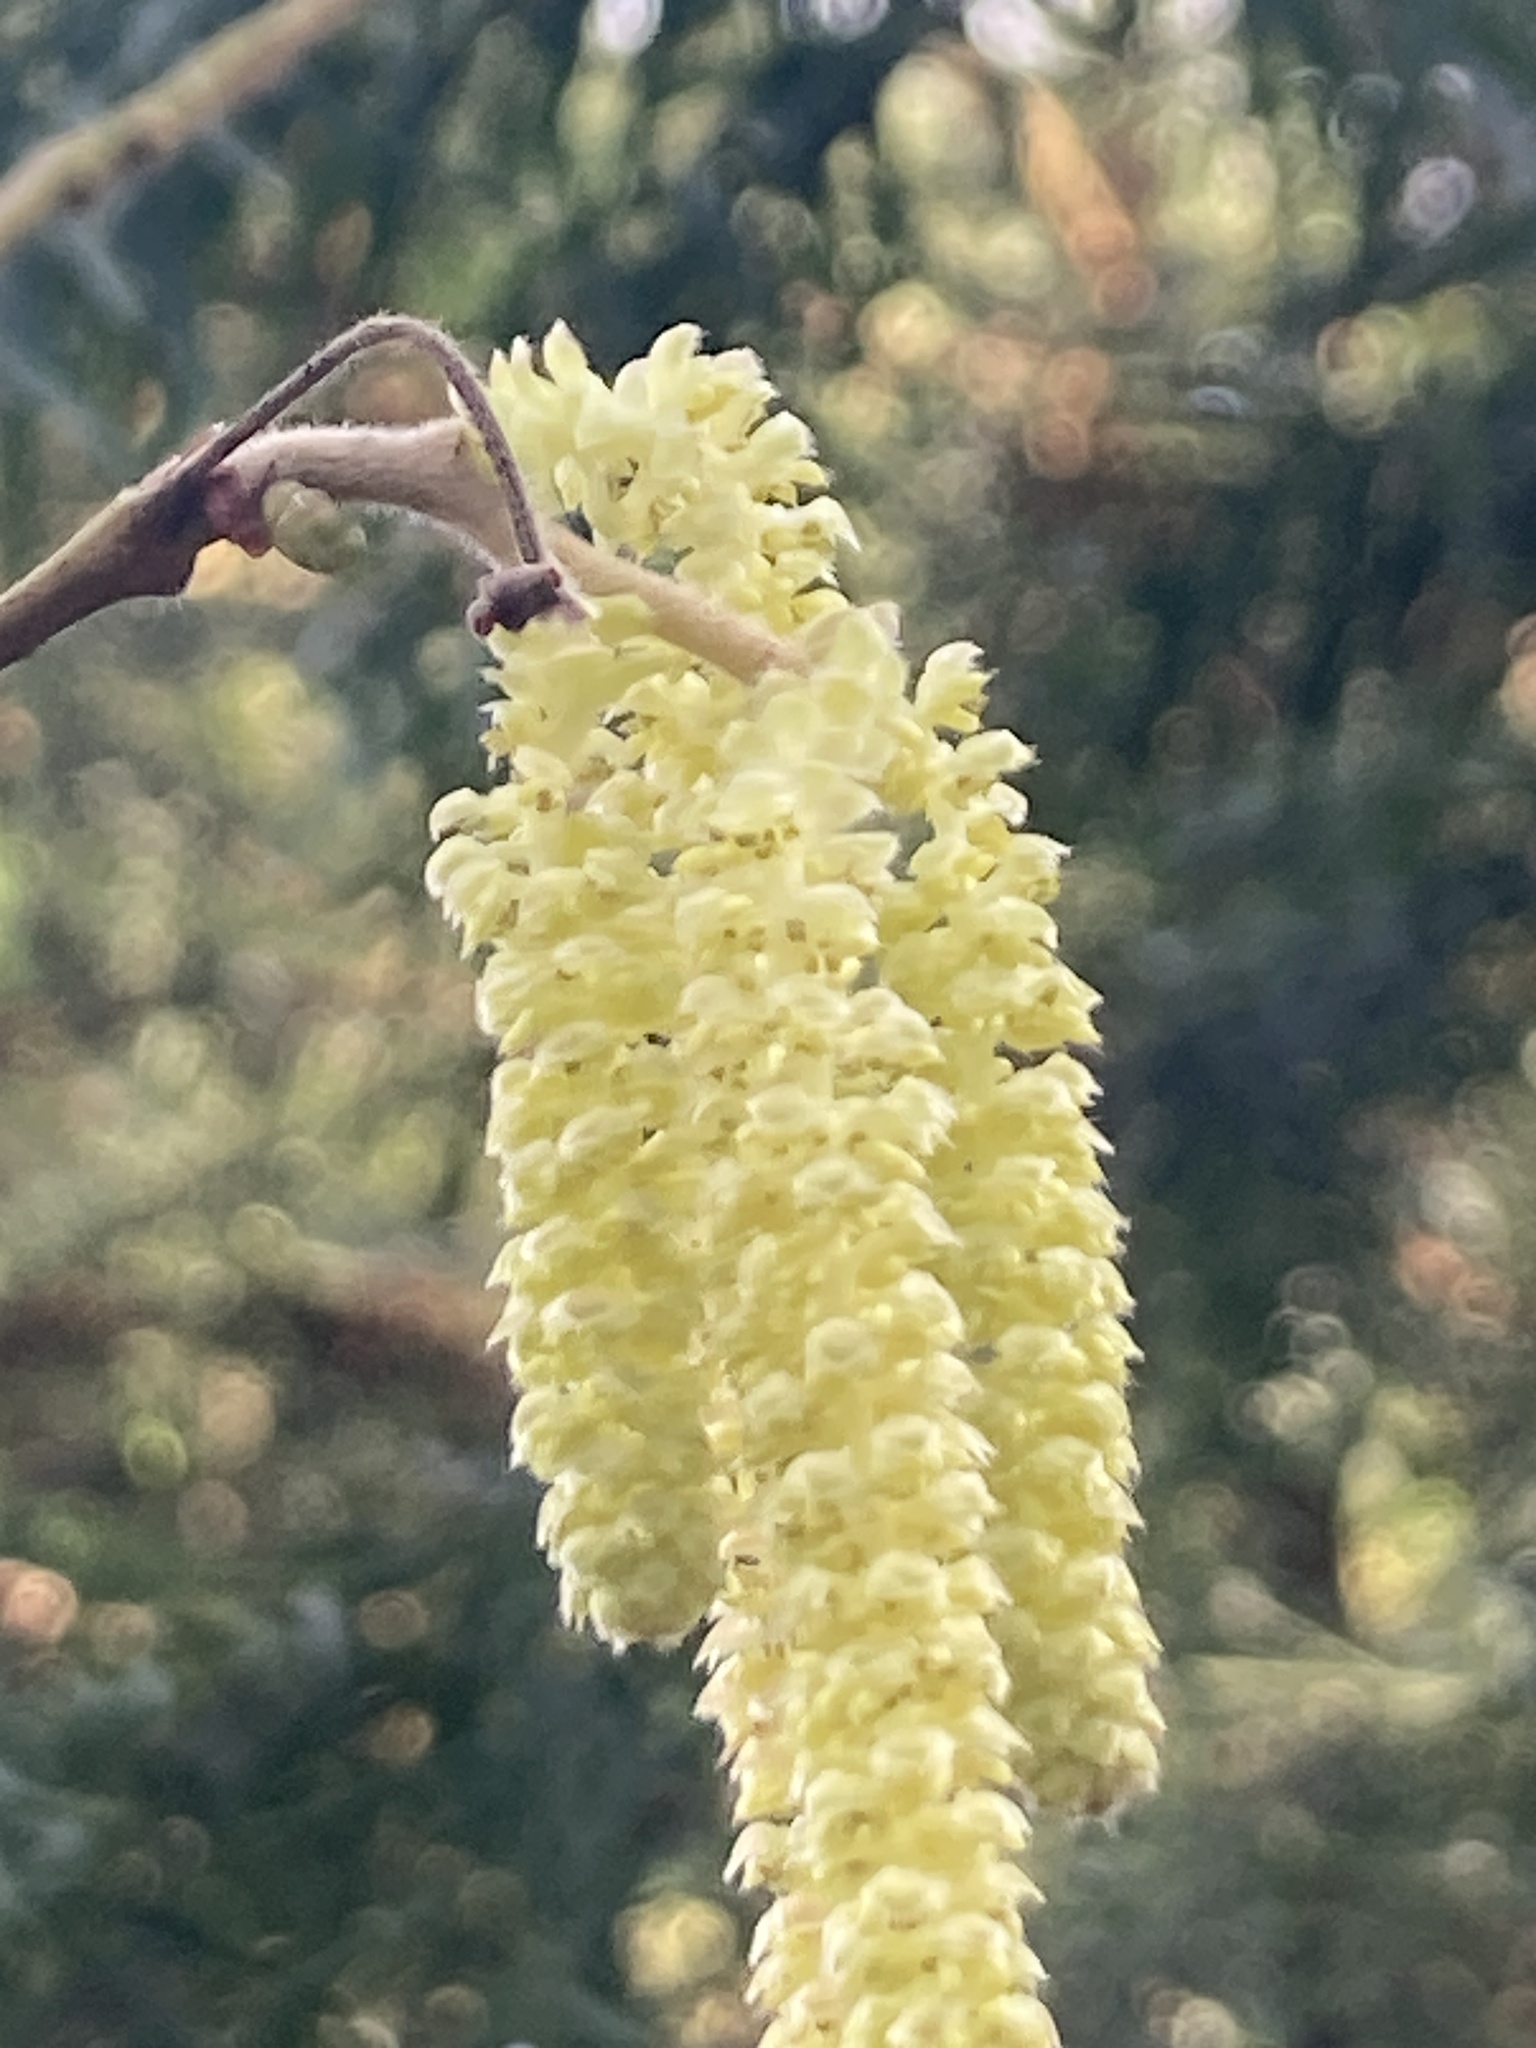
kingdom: Plantae
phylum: Tracheophyta
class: Magnoliopsida
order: Fagales
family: Betulaceae
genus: Corylus
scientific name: Corylus avellana
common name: European hazel
